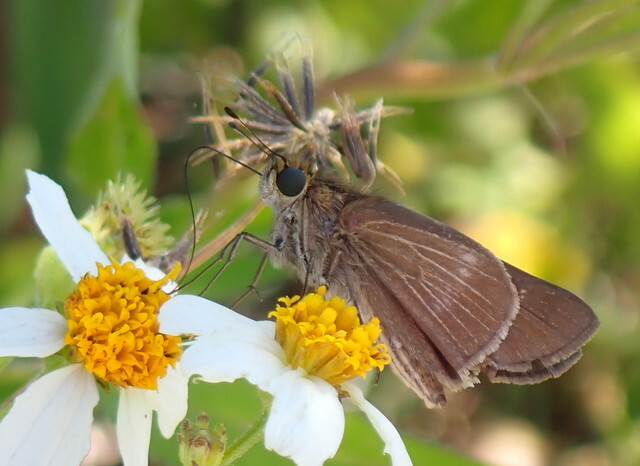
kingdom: Animalia
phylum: Arthropoda
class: Insecta
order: Lepidoptera
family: Hesperiidae
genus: Panoquina
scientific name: Panoquina ocola
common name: Ocola skipper
